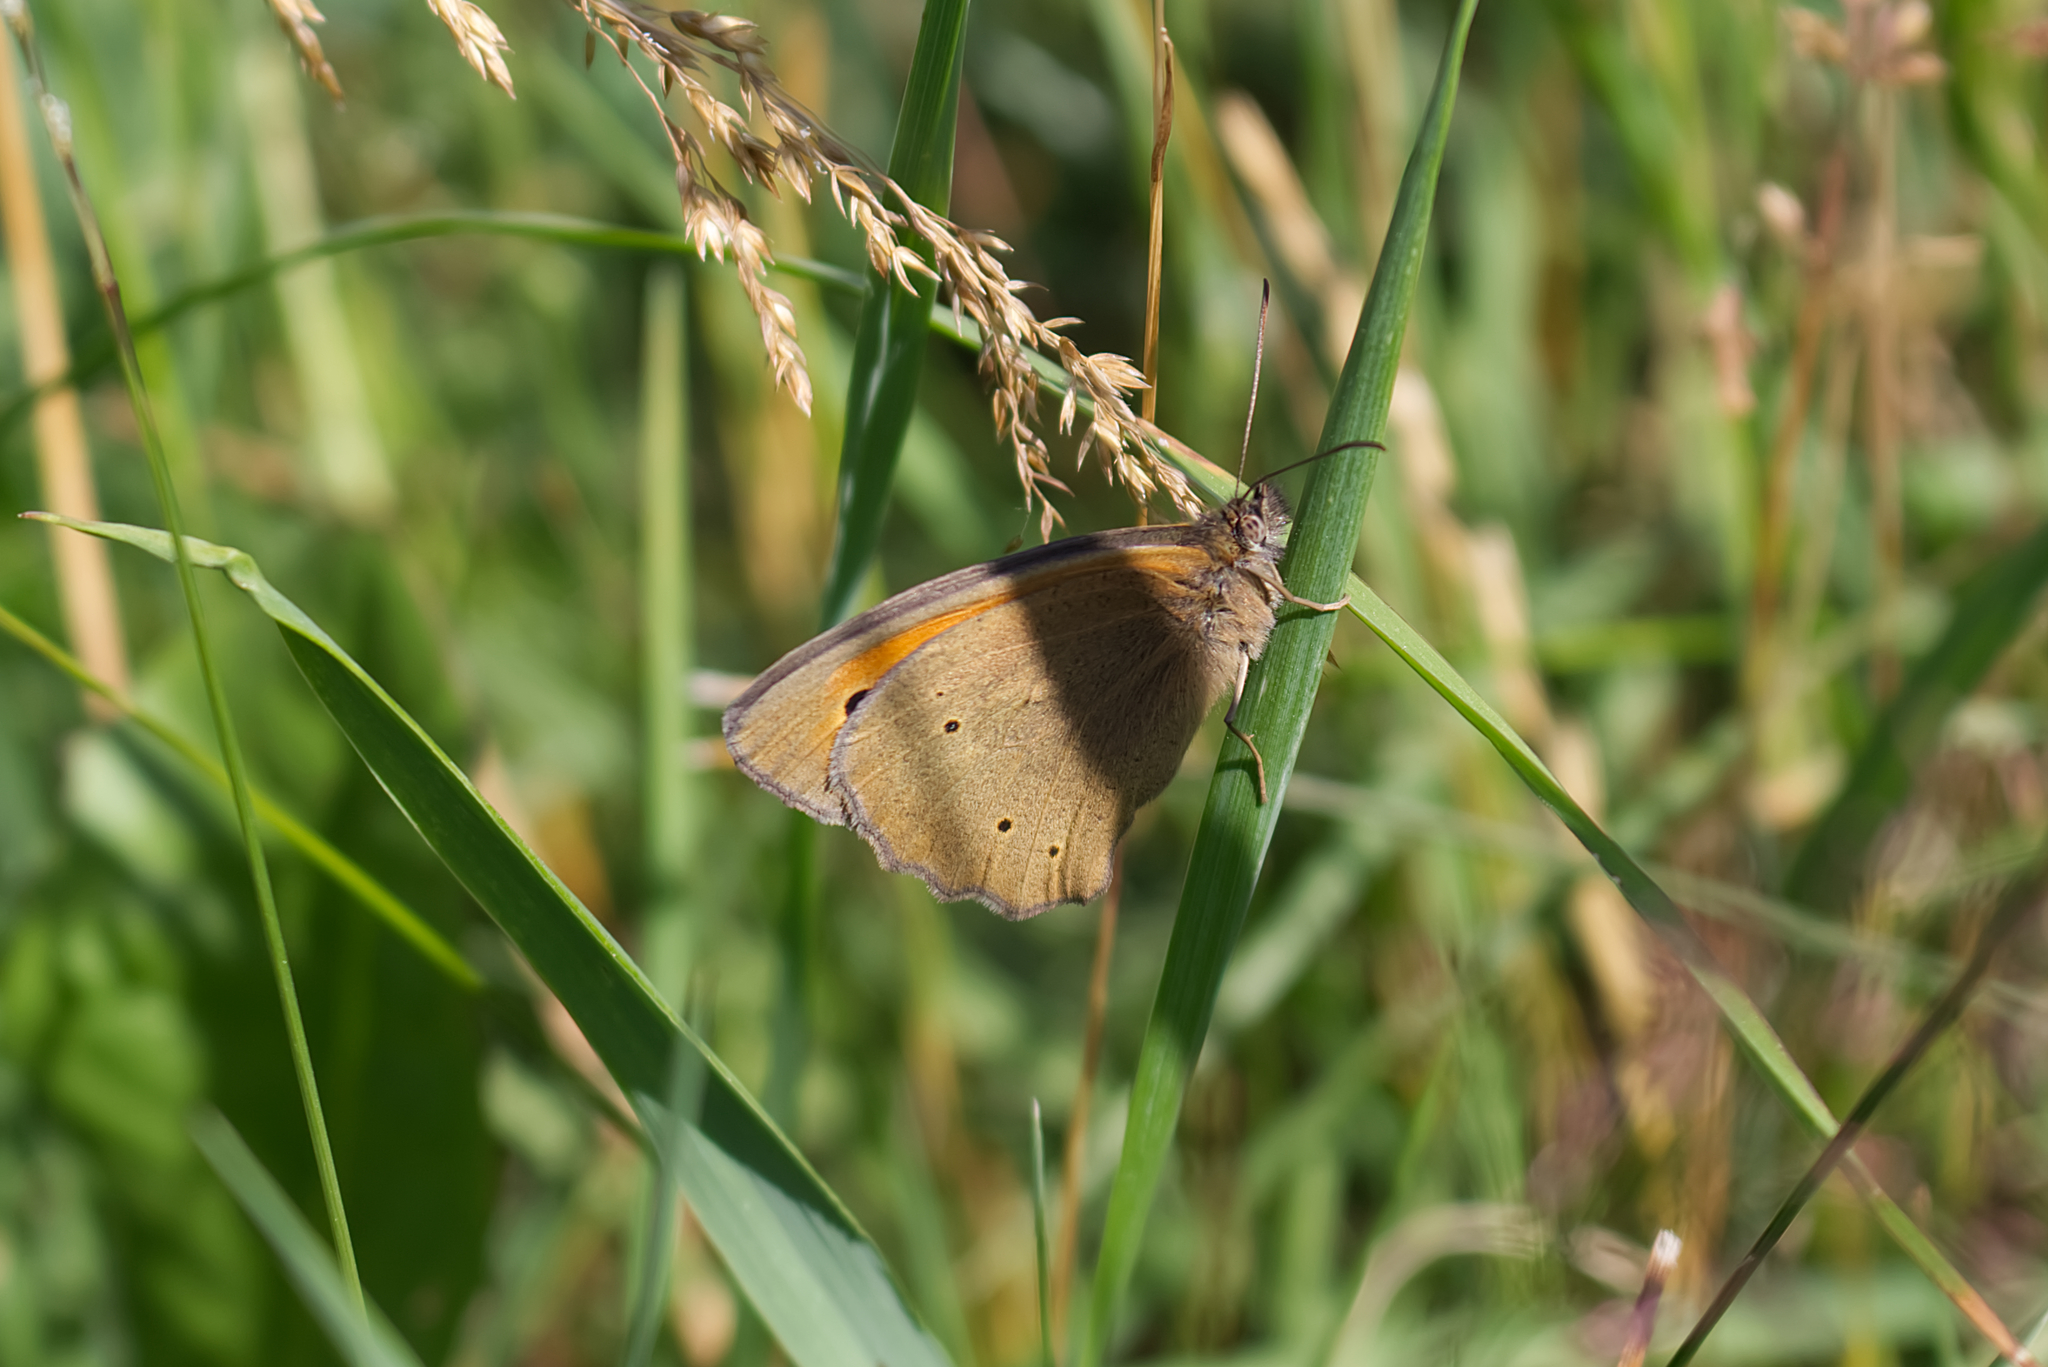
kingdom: Animalia
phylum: Arthropoda
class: Insecta
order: Lepidoptera
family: Nymphalidae
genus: Maniola
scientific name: Maniola jurtina
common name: Meadow brown
